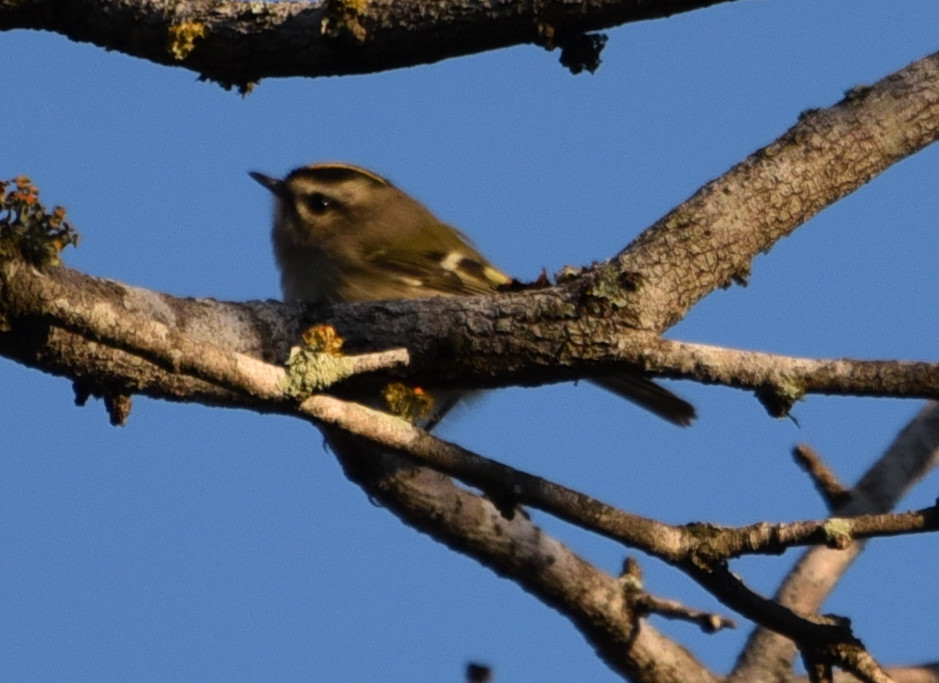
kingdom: Animalia
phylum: Chordata
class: Aves
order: Passeriformes
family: Regulidae
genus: Regulus
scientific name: Regulus satrapa
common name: Golden-crowned kinglet
